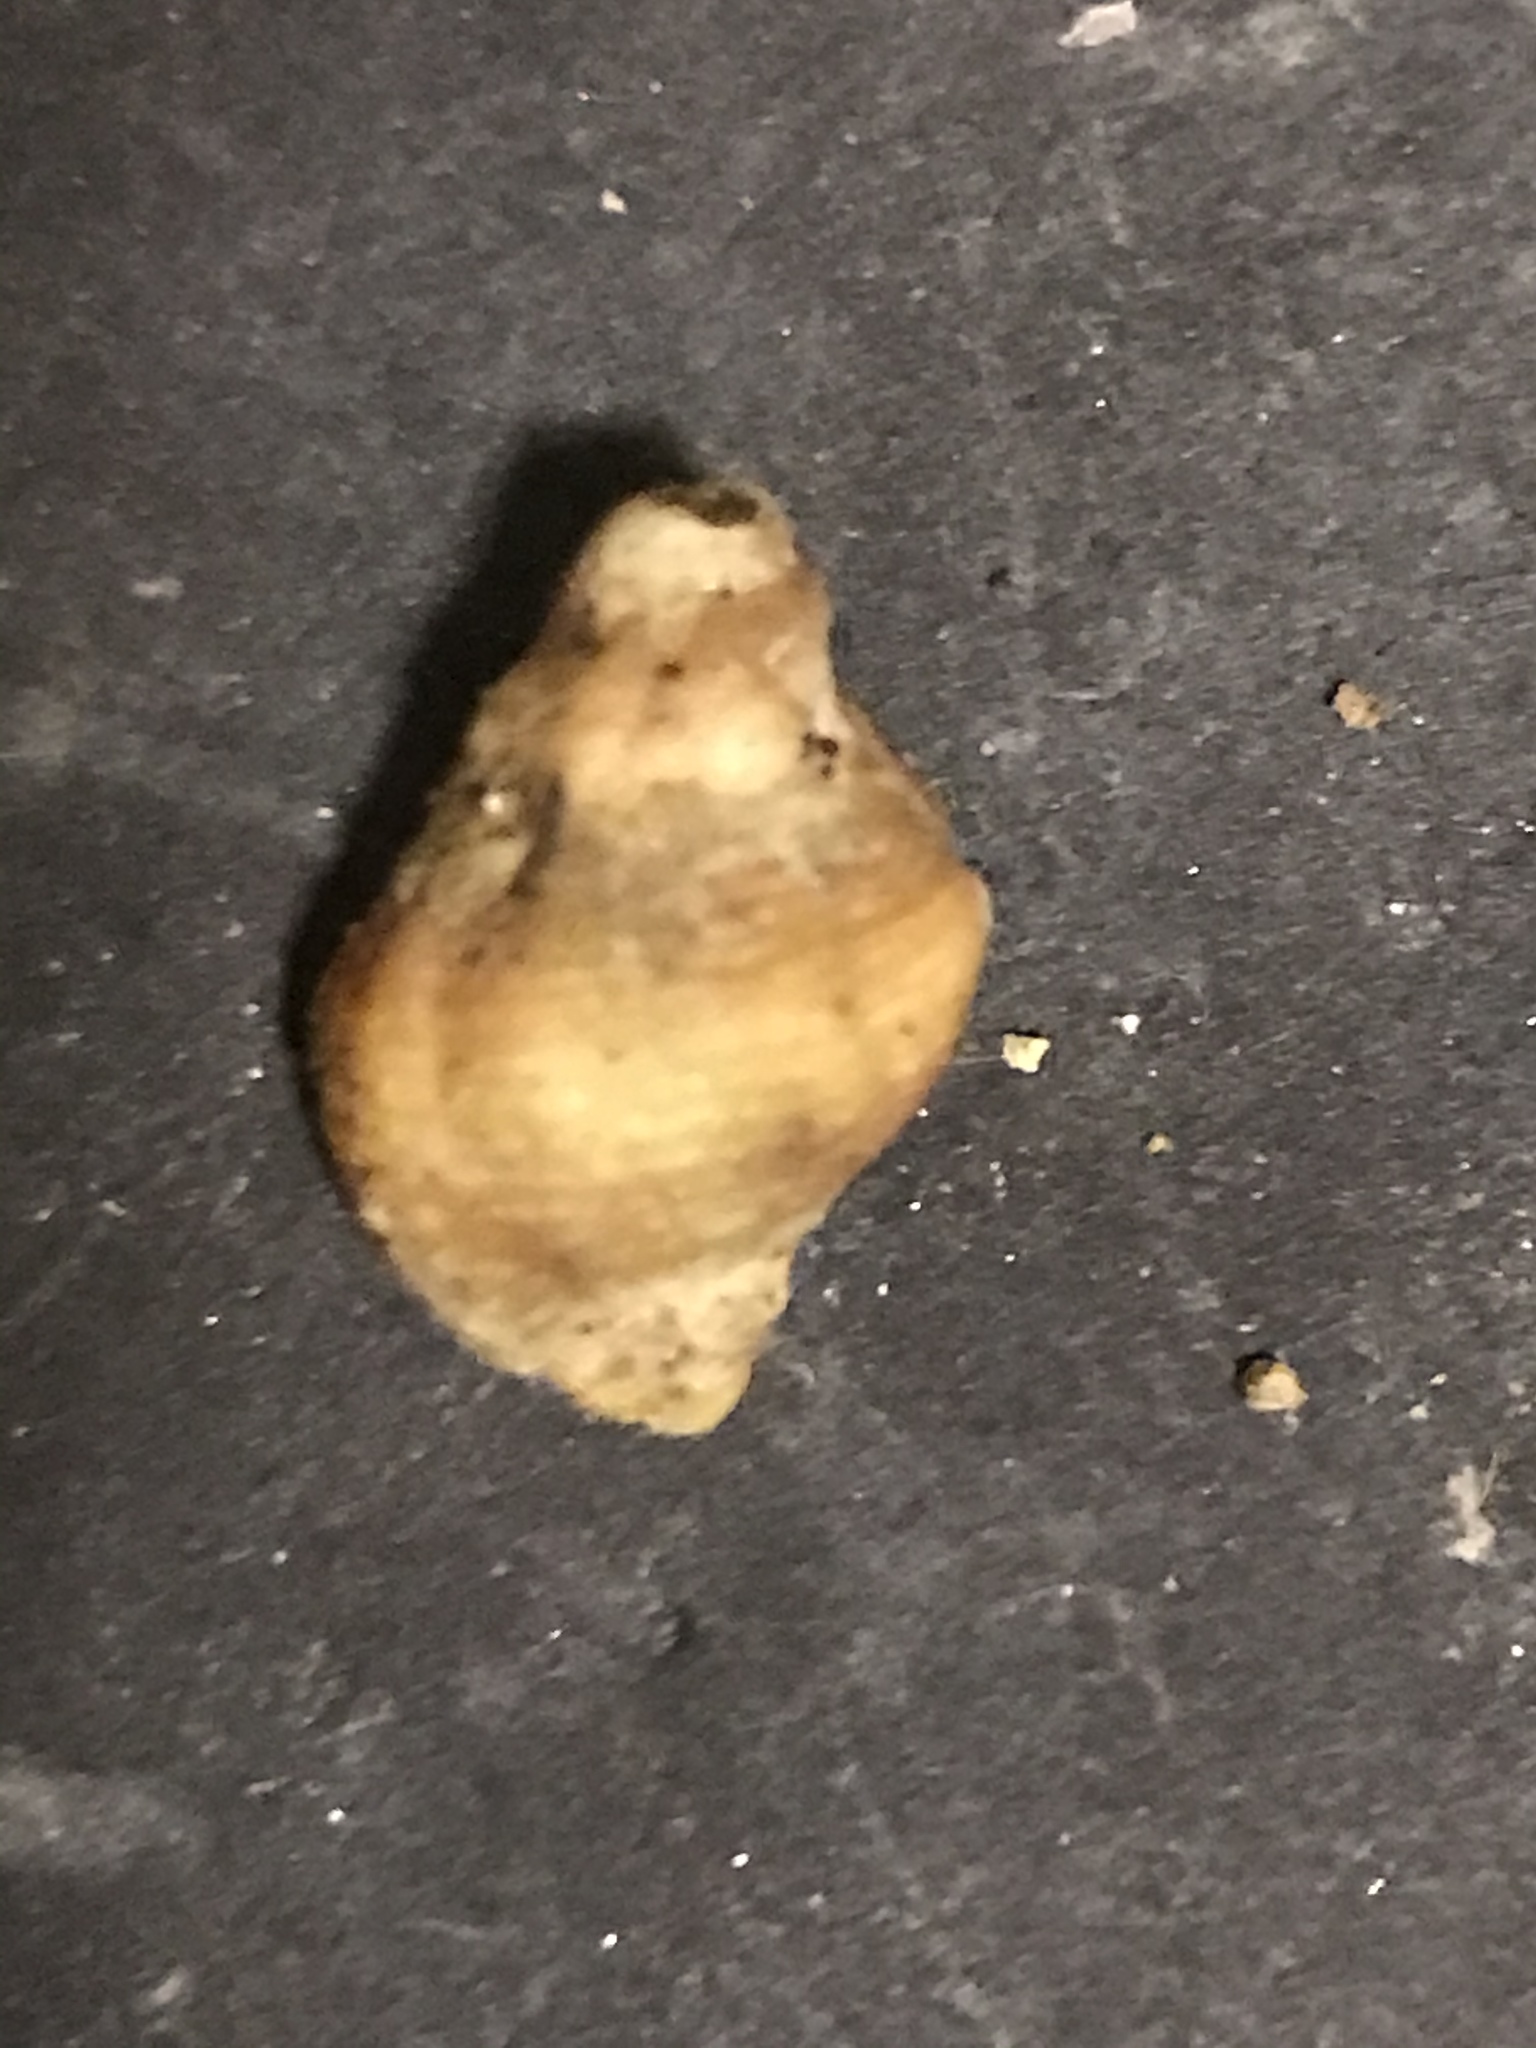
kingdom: Animalia
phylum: Mollusca
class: Gastropoda
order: Neogastropoda
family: Muricidae
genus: Paciocinebrina
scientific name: Paciocinebrina lurida
